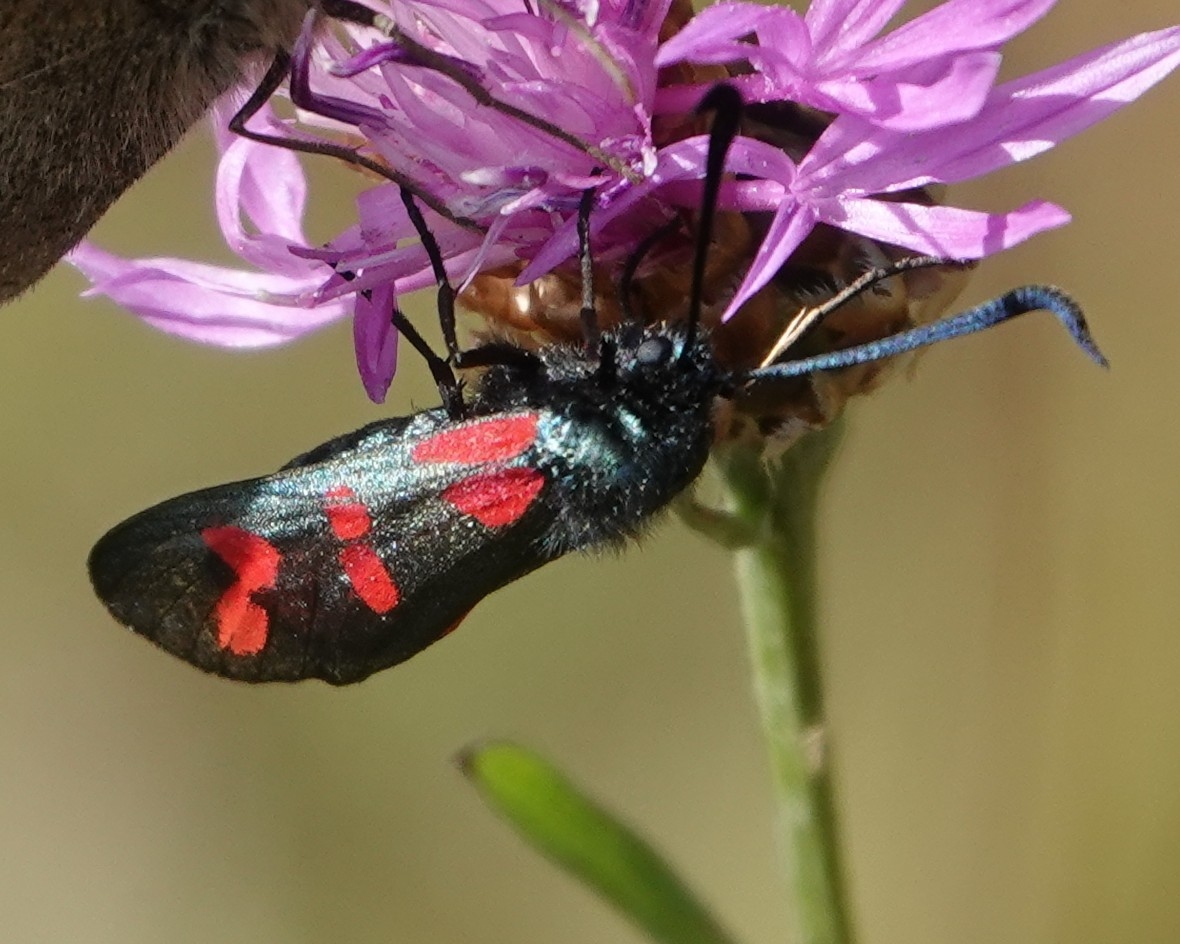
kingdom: Animalia
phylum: Arthropoda
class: Insecta
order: Lepidoptera
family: Zygaenidae
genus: Zygaena
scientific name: Zygaena filipendulae
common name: Six-spot burnet
